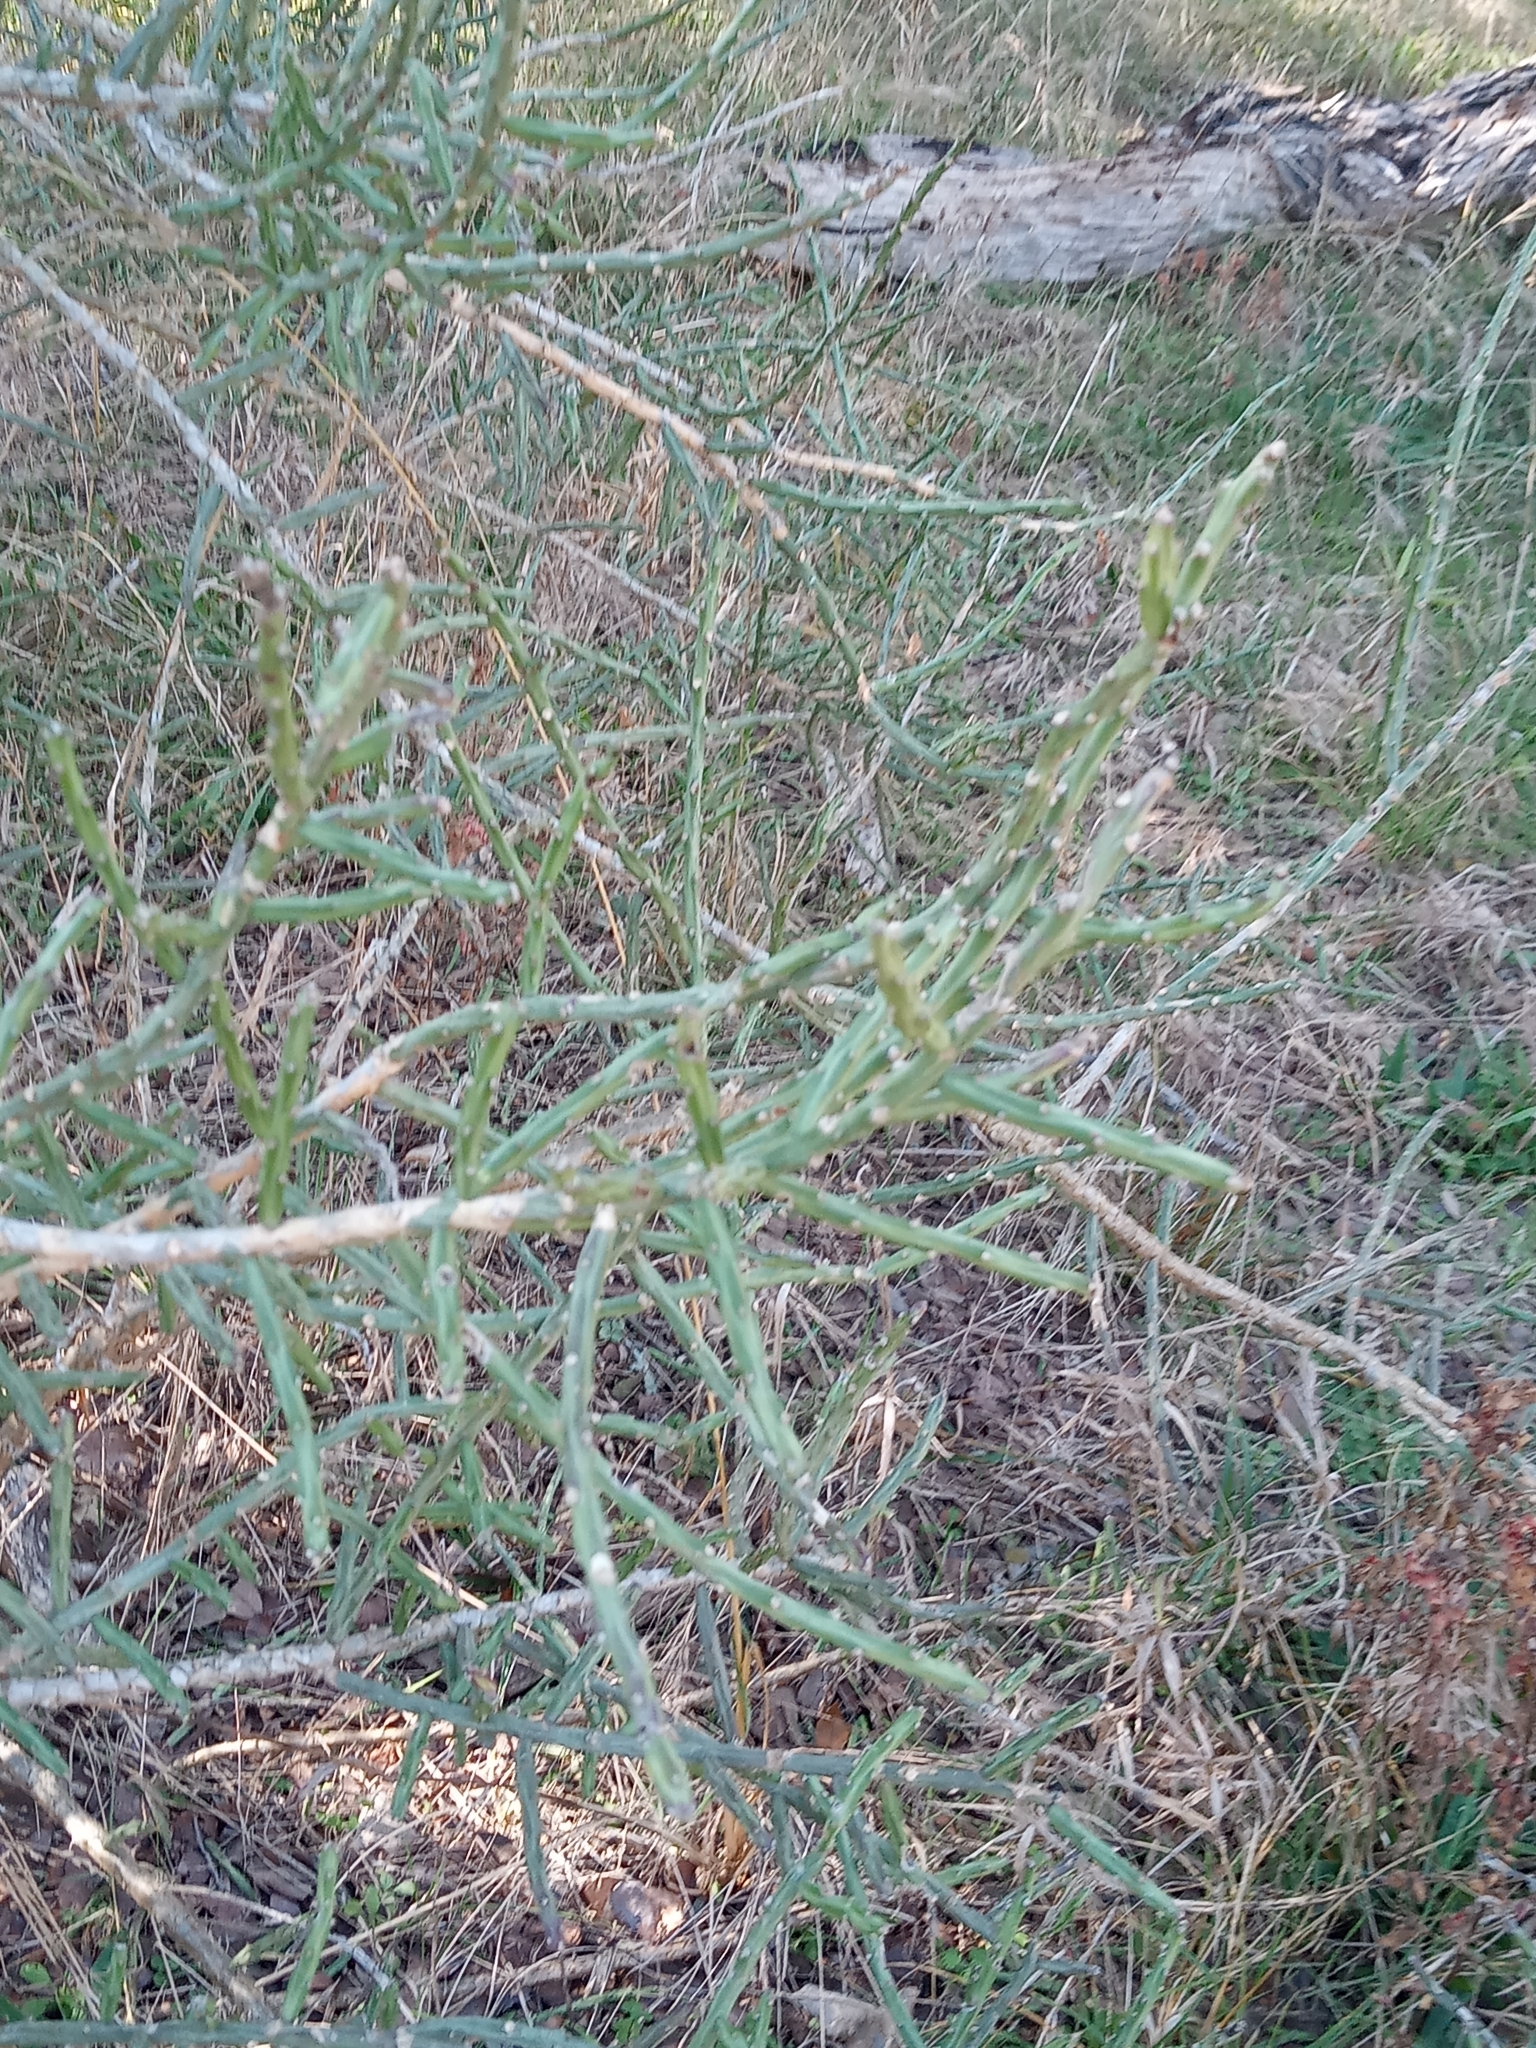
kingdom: Plantae
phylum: Tracheophyta
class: Magnoliopsida
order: Caryophyllales
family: Cactaceae
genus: Cylindropuntia
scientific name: Cylindropuntia leptocaulis
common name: Christmas cactus
